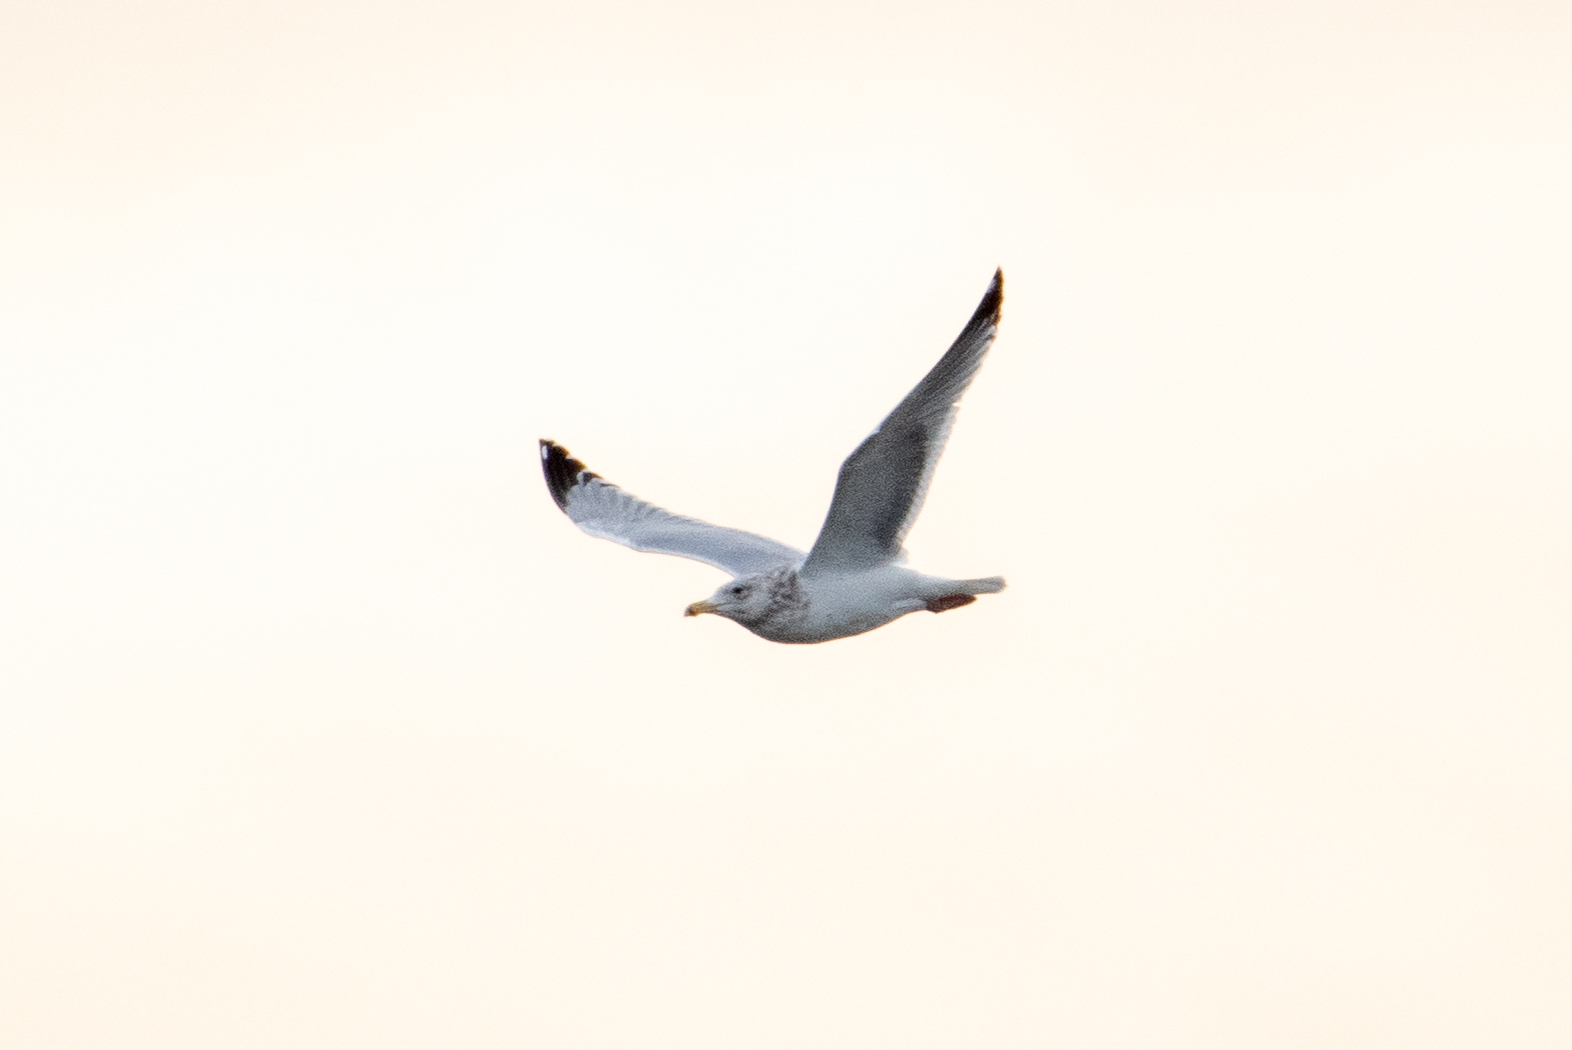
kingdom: Animalia
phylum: Chordata
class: Aves
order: Charadriiformes
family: Laridae
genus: Larus
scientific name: Larus argentatus
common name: Herring gull
